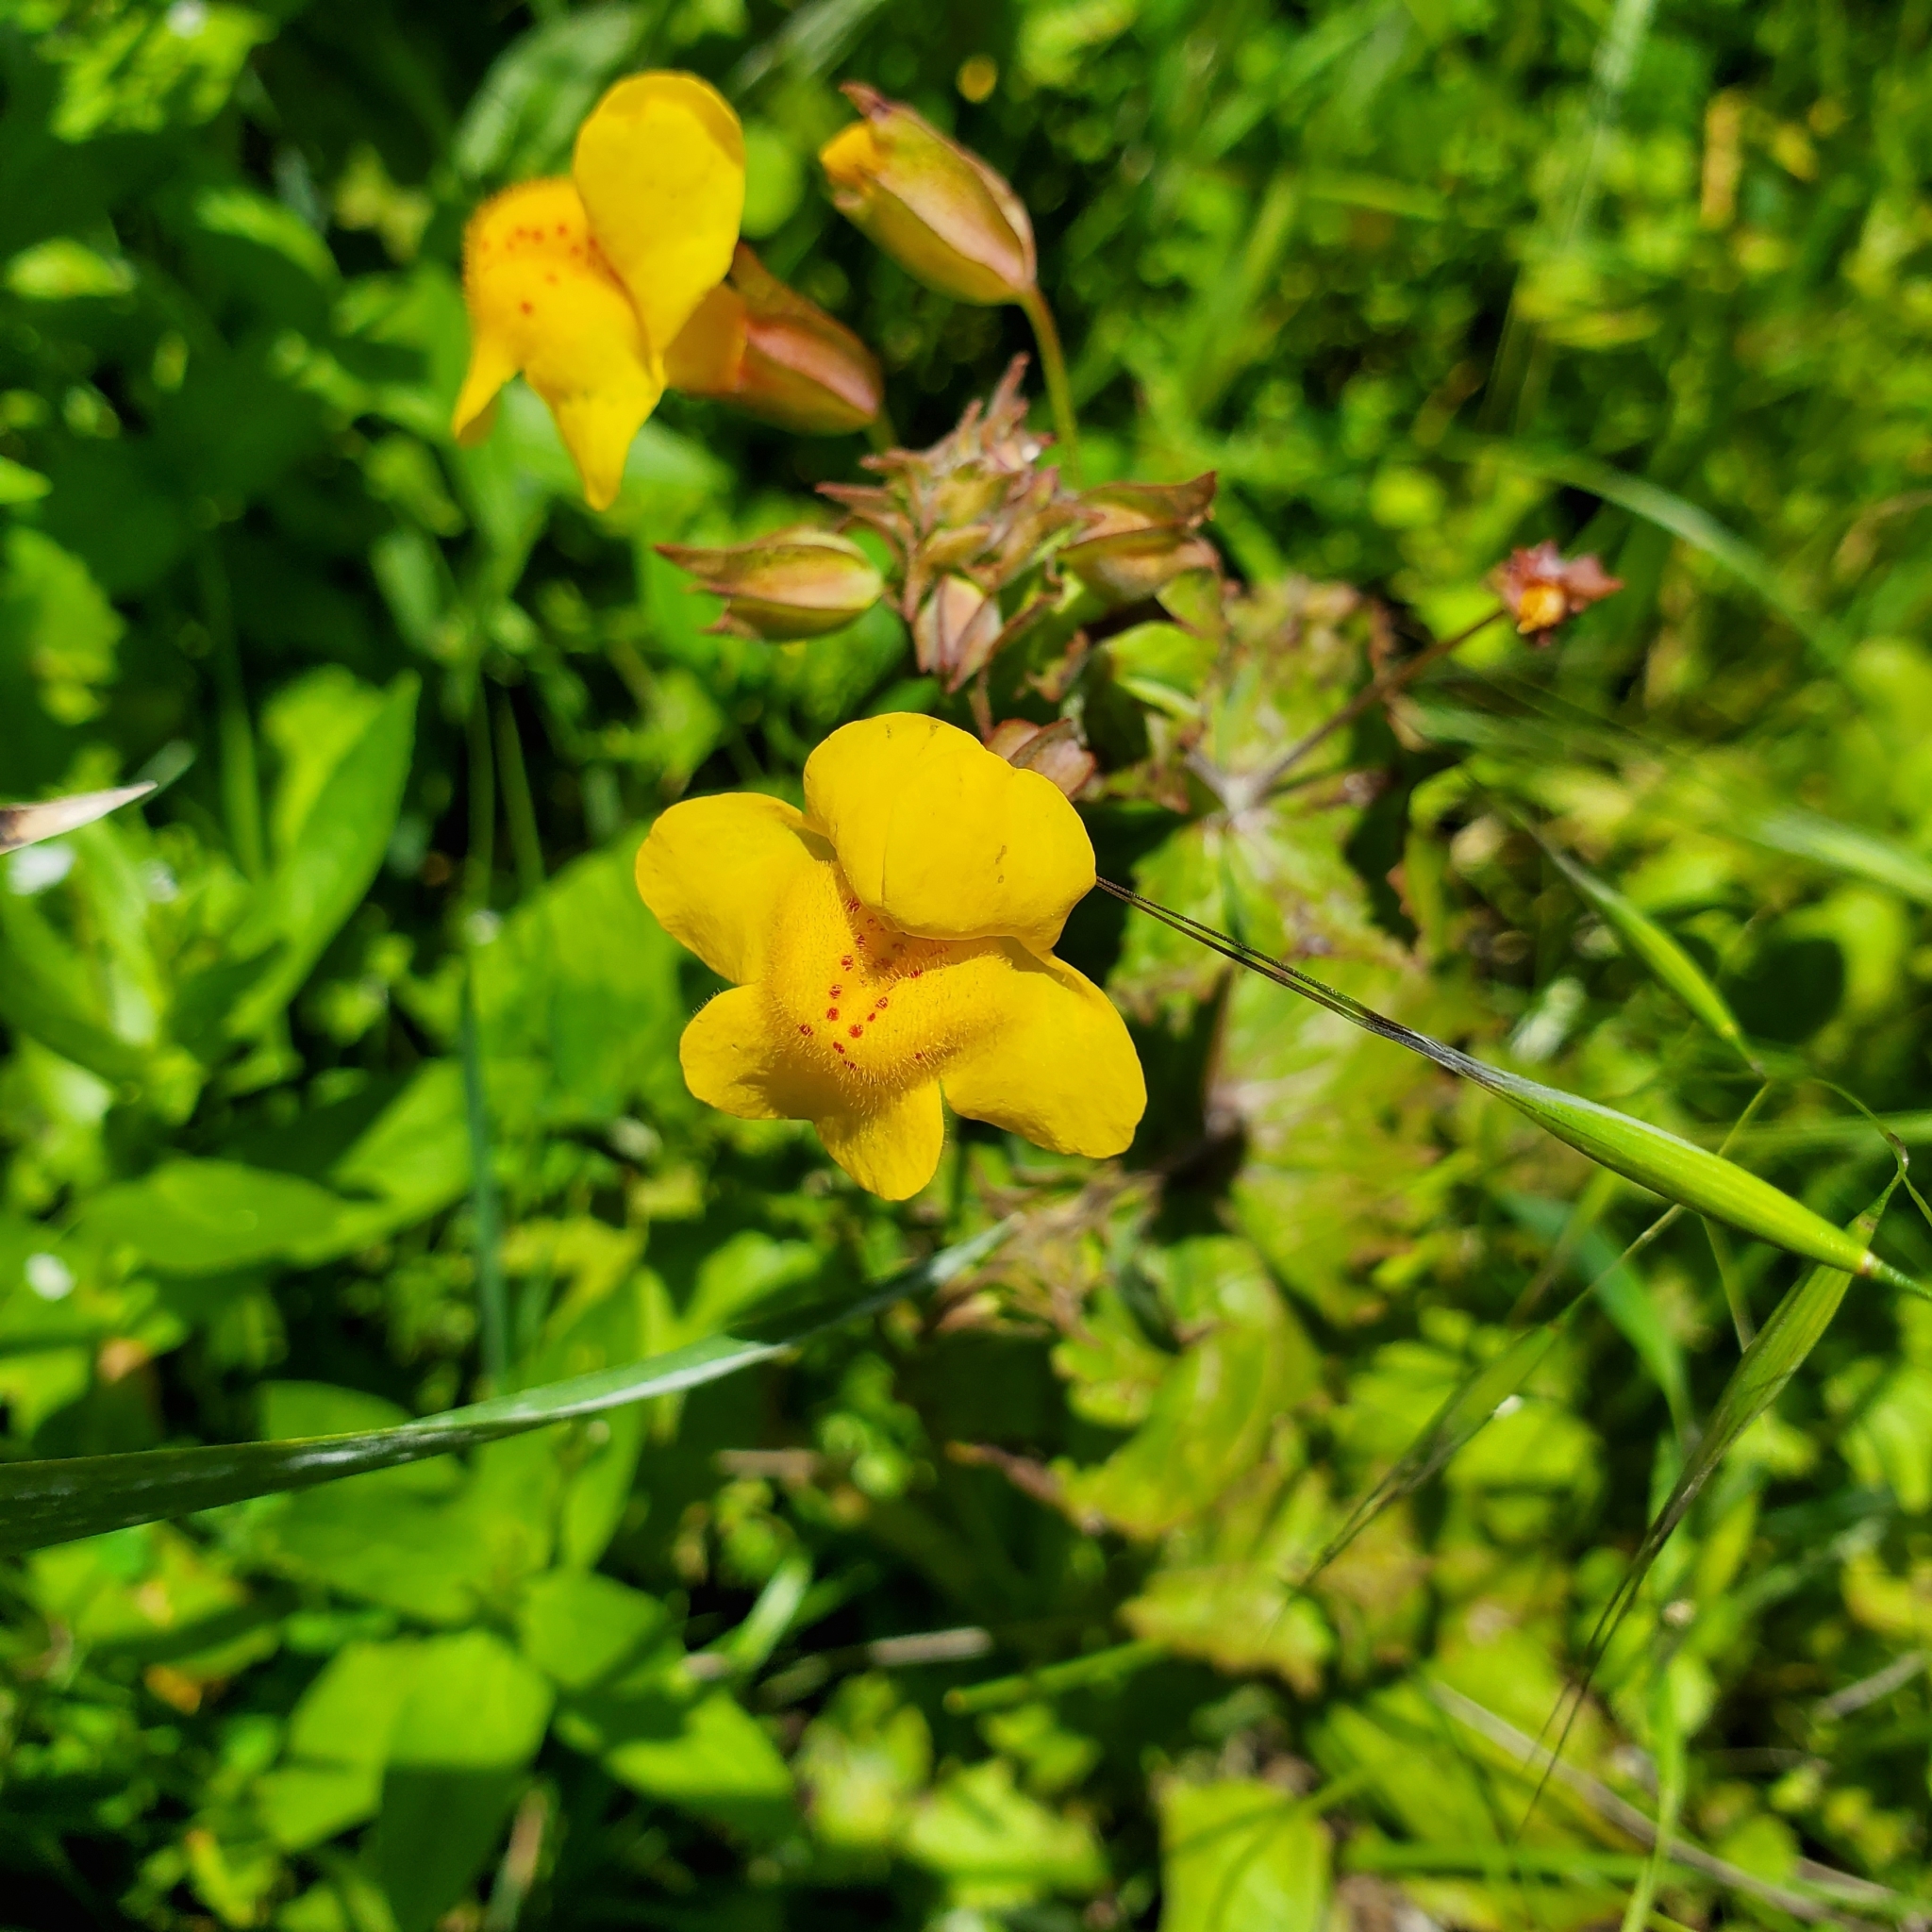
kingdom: Plantae
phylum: Tracheophyta
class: Magnoliopsida
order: Lamiales
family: Phrymaceae
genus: Erythranthe
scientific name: Erythranthe guttata
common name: Monkeyflower
